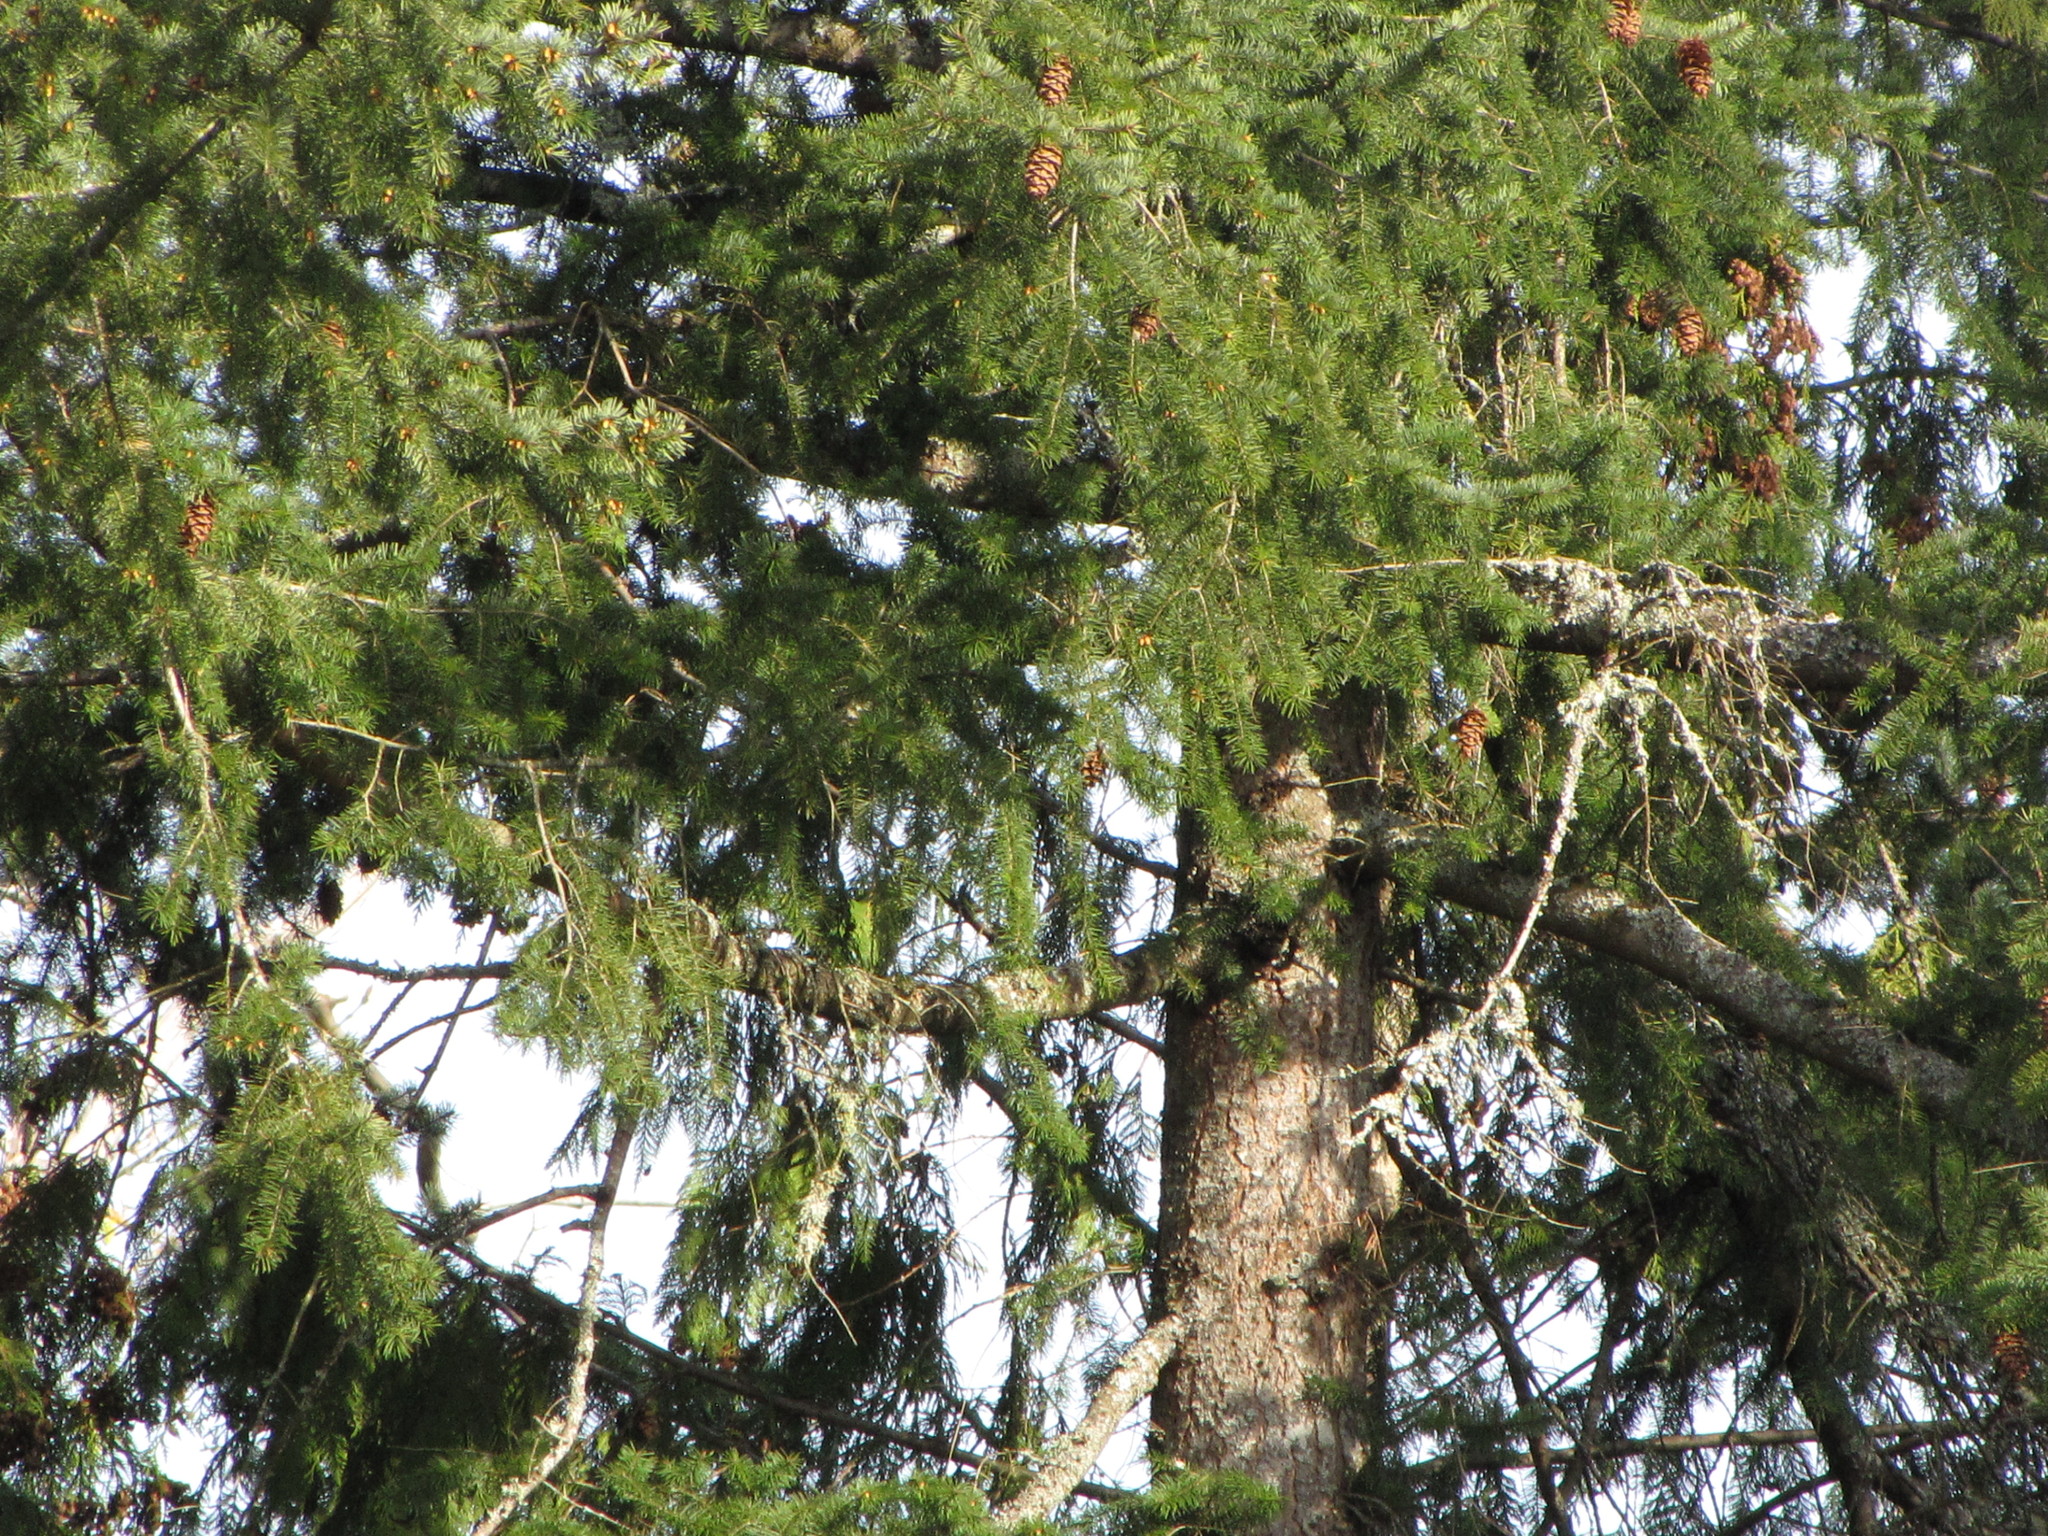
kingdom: Plantae
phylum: Tracheophyta
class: Pinopsida
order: Pinales
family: Pinaceae
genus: Pseudotsuga
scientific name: Pseudotsuga menziesii
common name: Douglas fir
